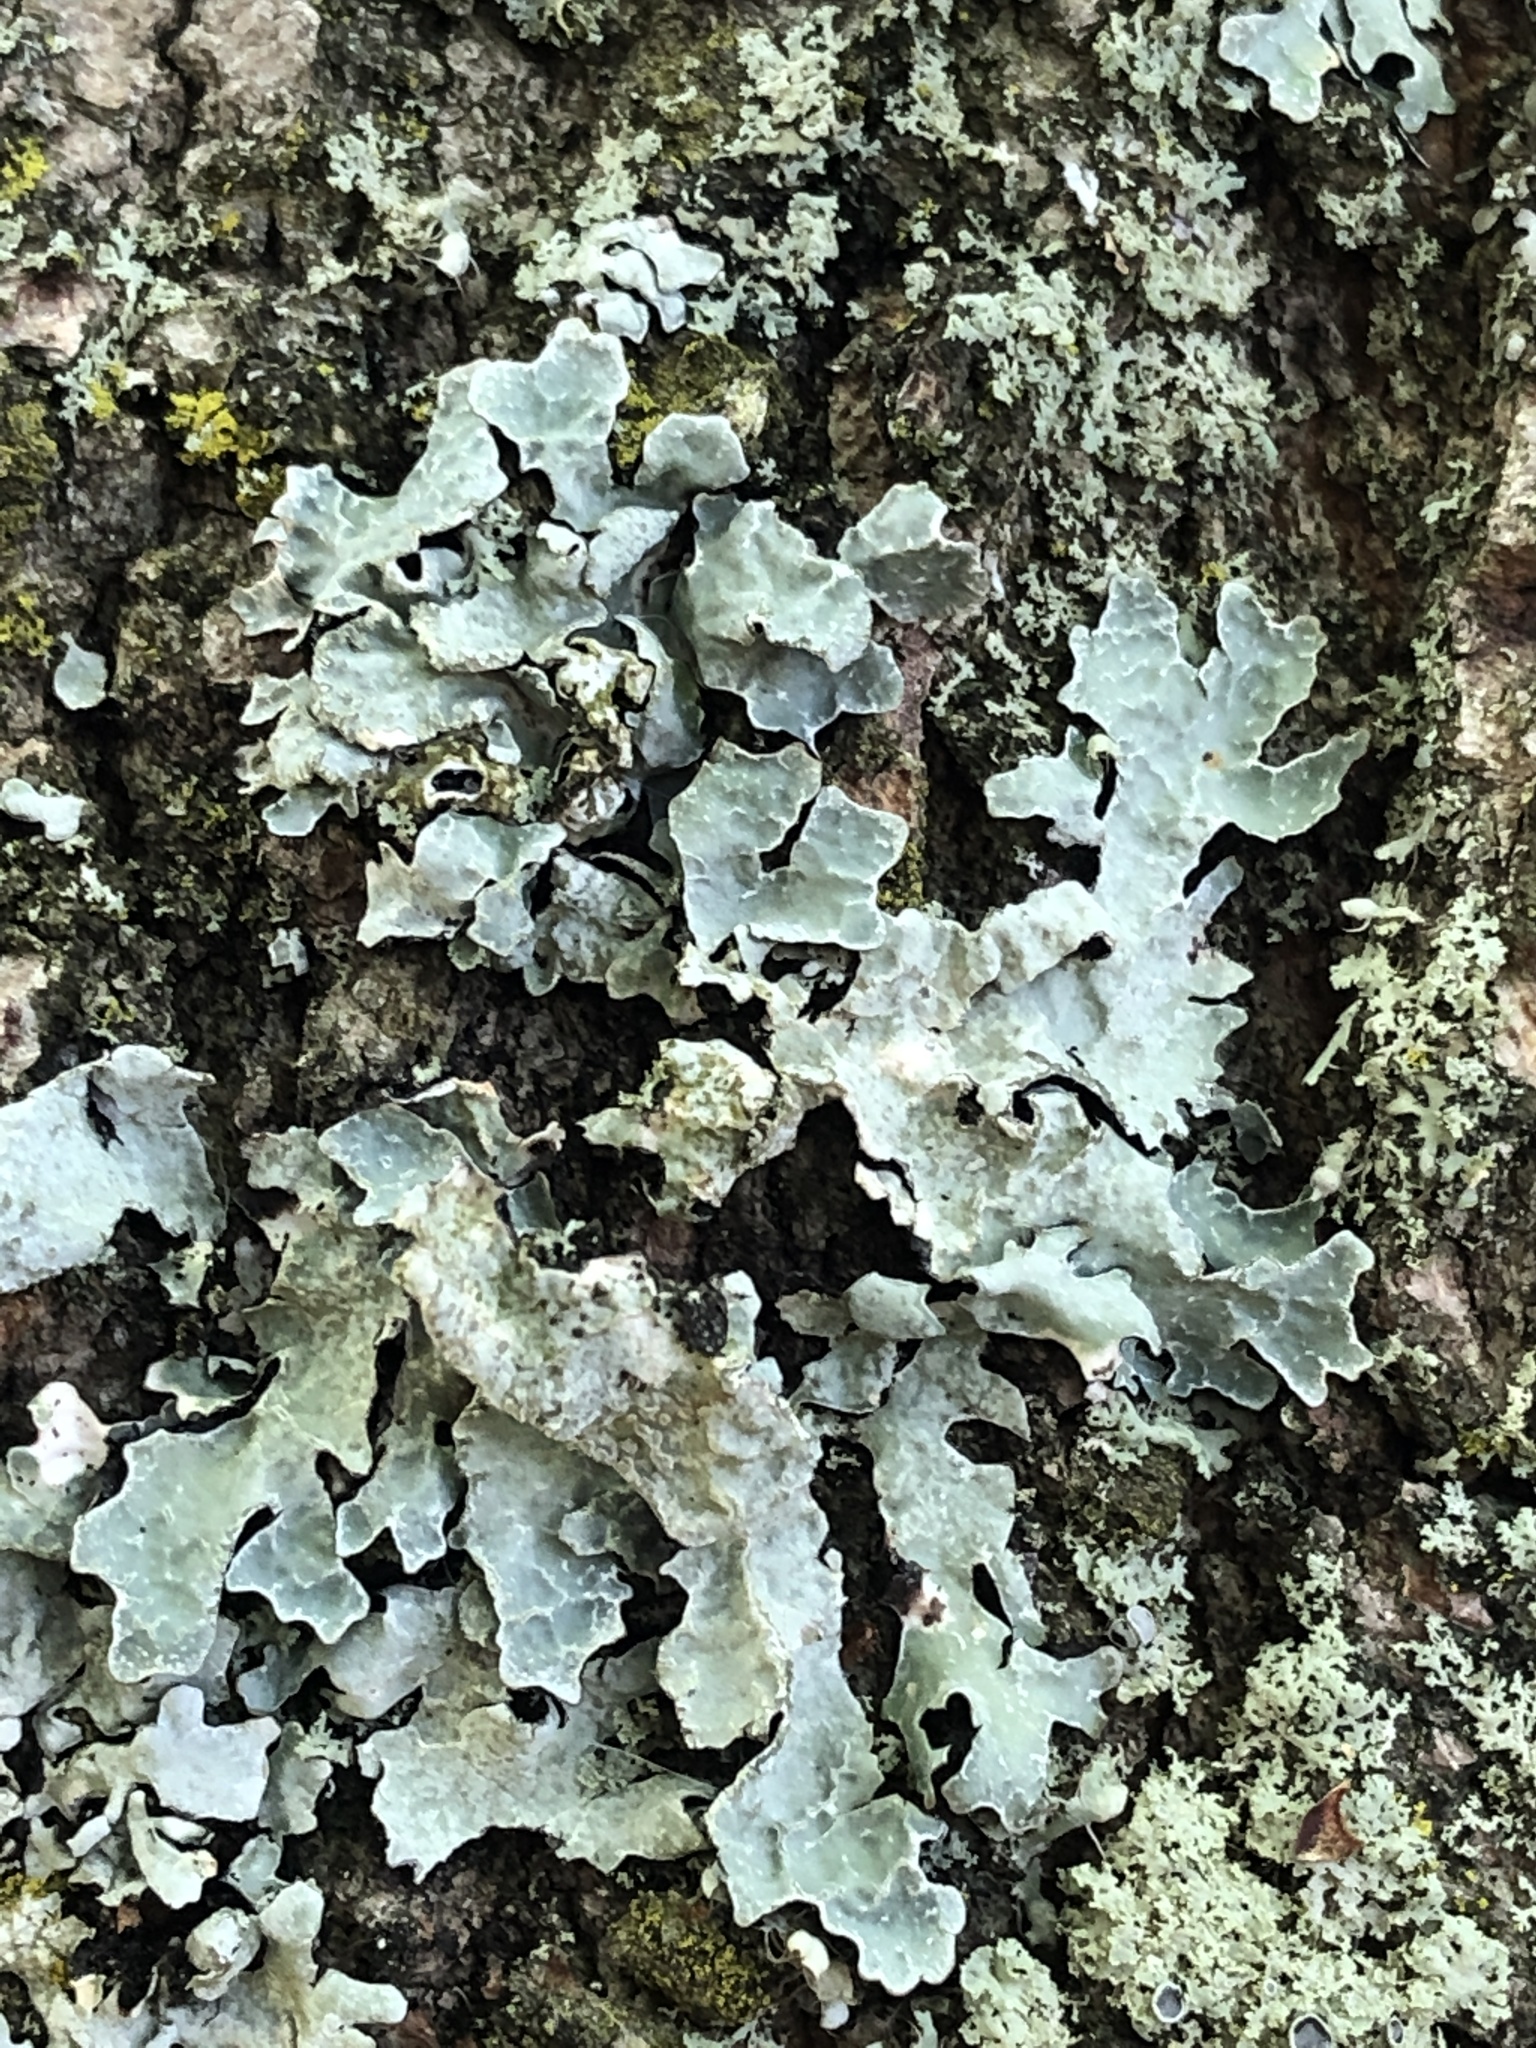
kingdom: Fungi
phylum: Ascomycota
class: Lecanoromycetes
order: Lecanorales
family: Parmeliaceae
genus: Parmelia
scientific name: Parmelia sulcata
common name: Netted shield lichen
